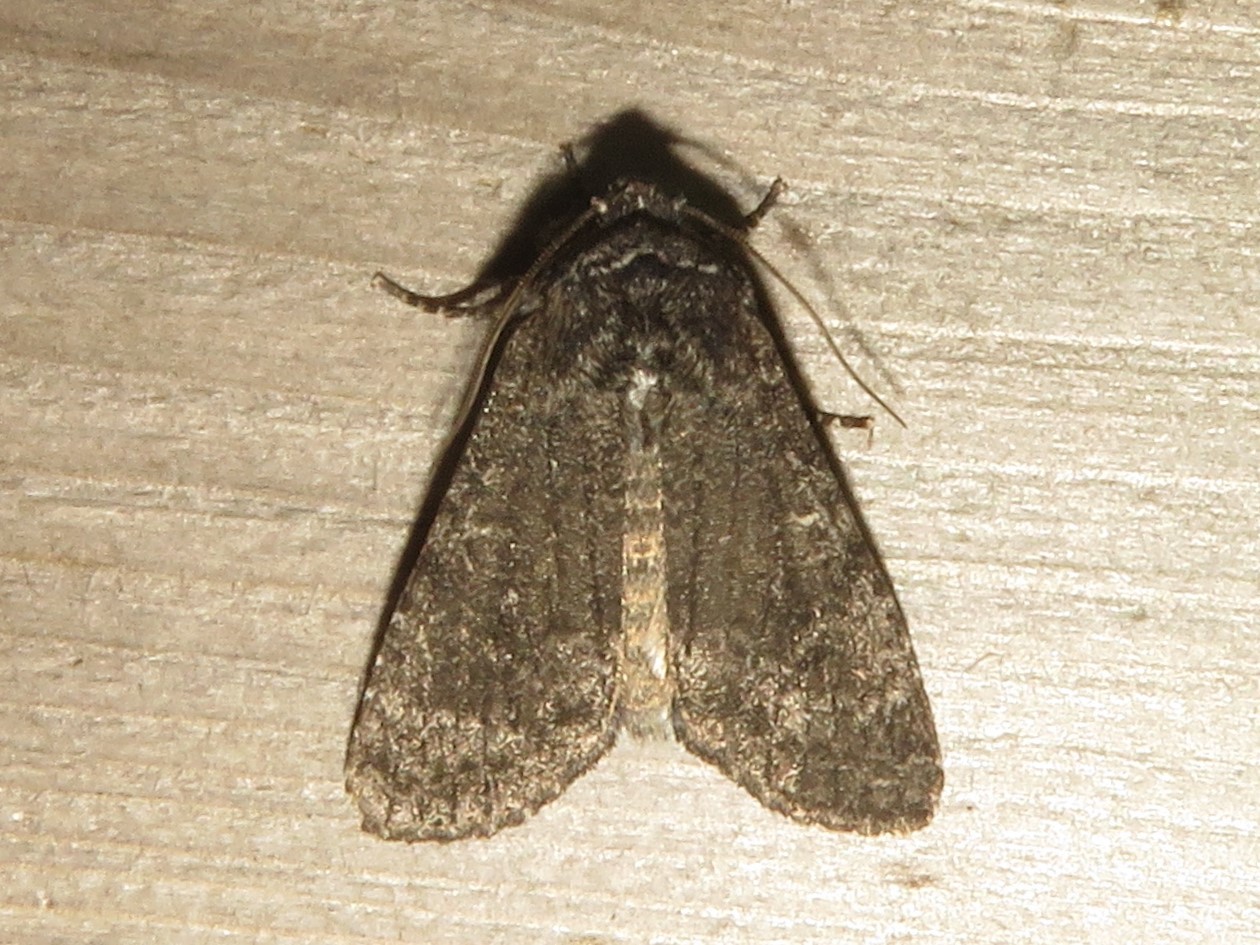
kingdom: Animalia
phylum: Arthropoda
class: Insecta
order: Lepidoptera
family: Noctuidae
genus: Egira
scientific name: Egira dolosa
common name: Lined black aspen cat.
